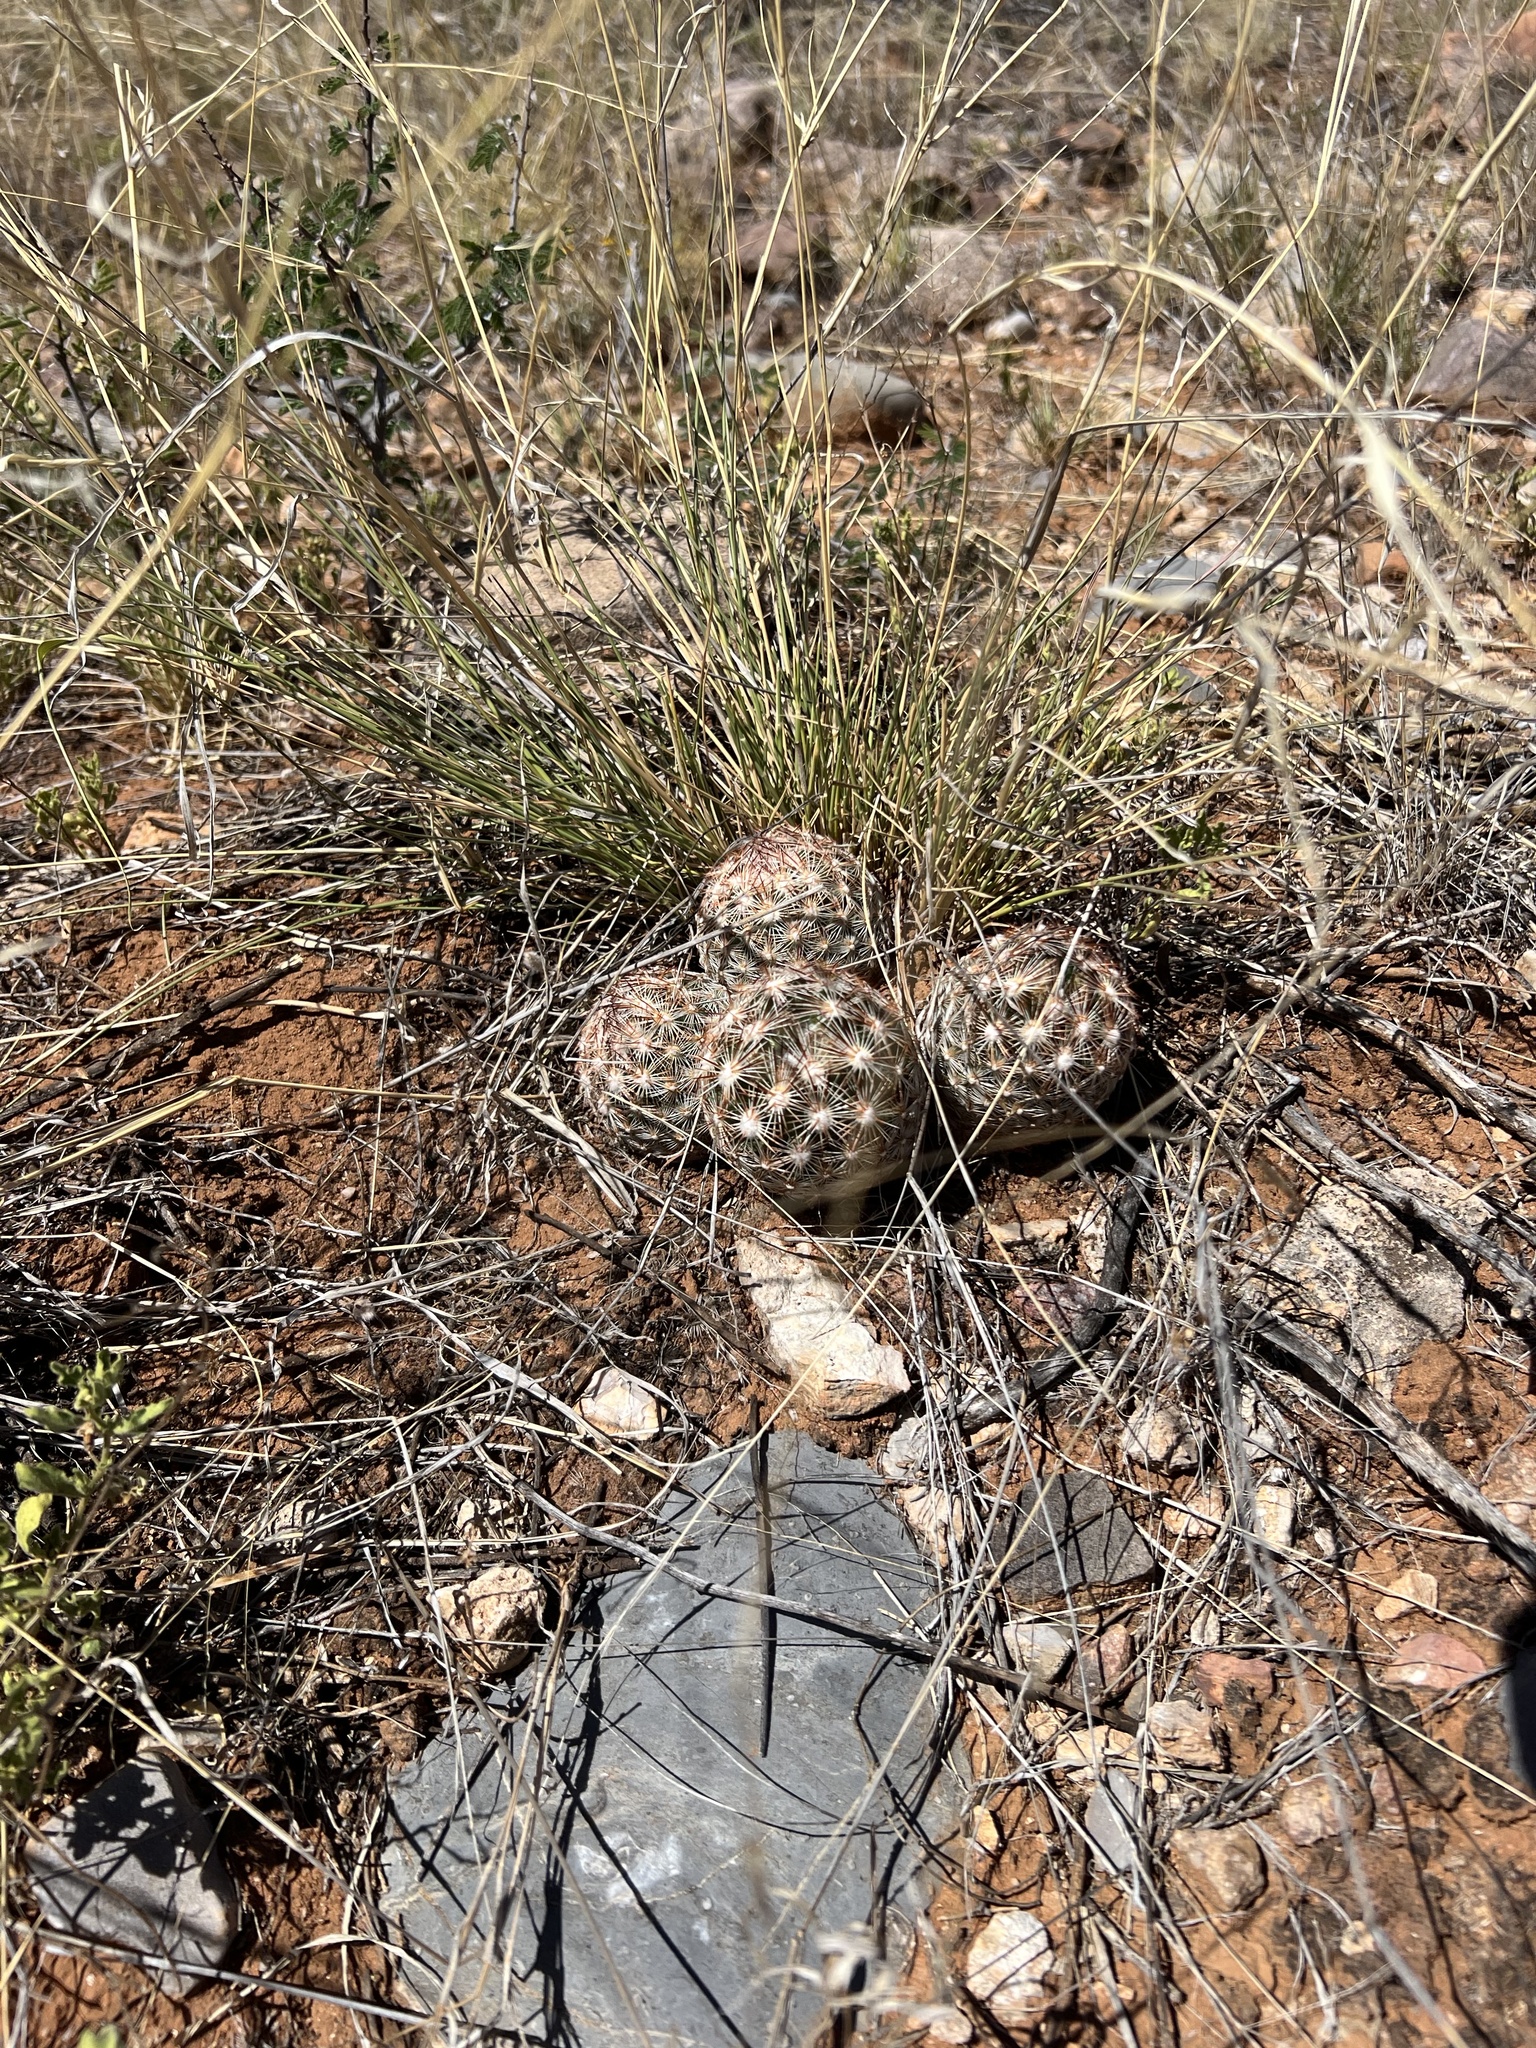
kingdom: Plantae
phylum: Tracheophyta
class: Magnoliopsida
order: Caryophyllales
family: Cactaceae
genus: Pelecyphora
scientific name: Pelecyphora vivipara
